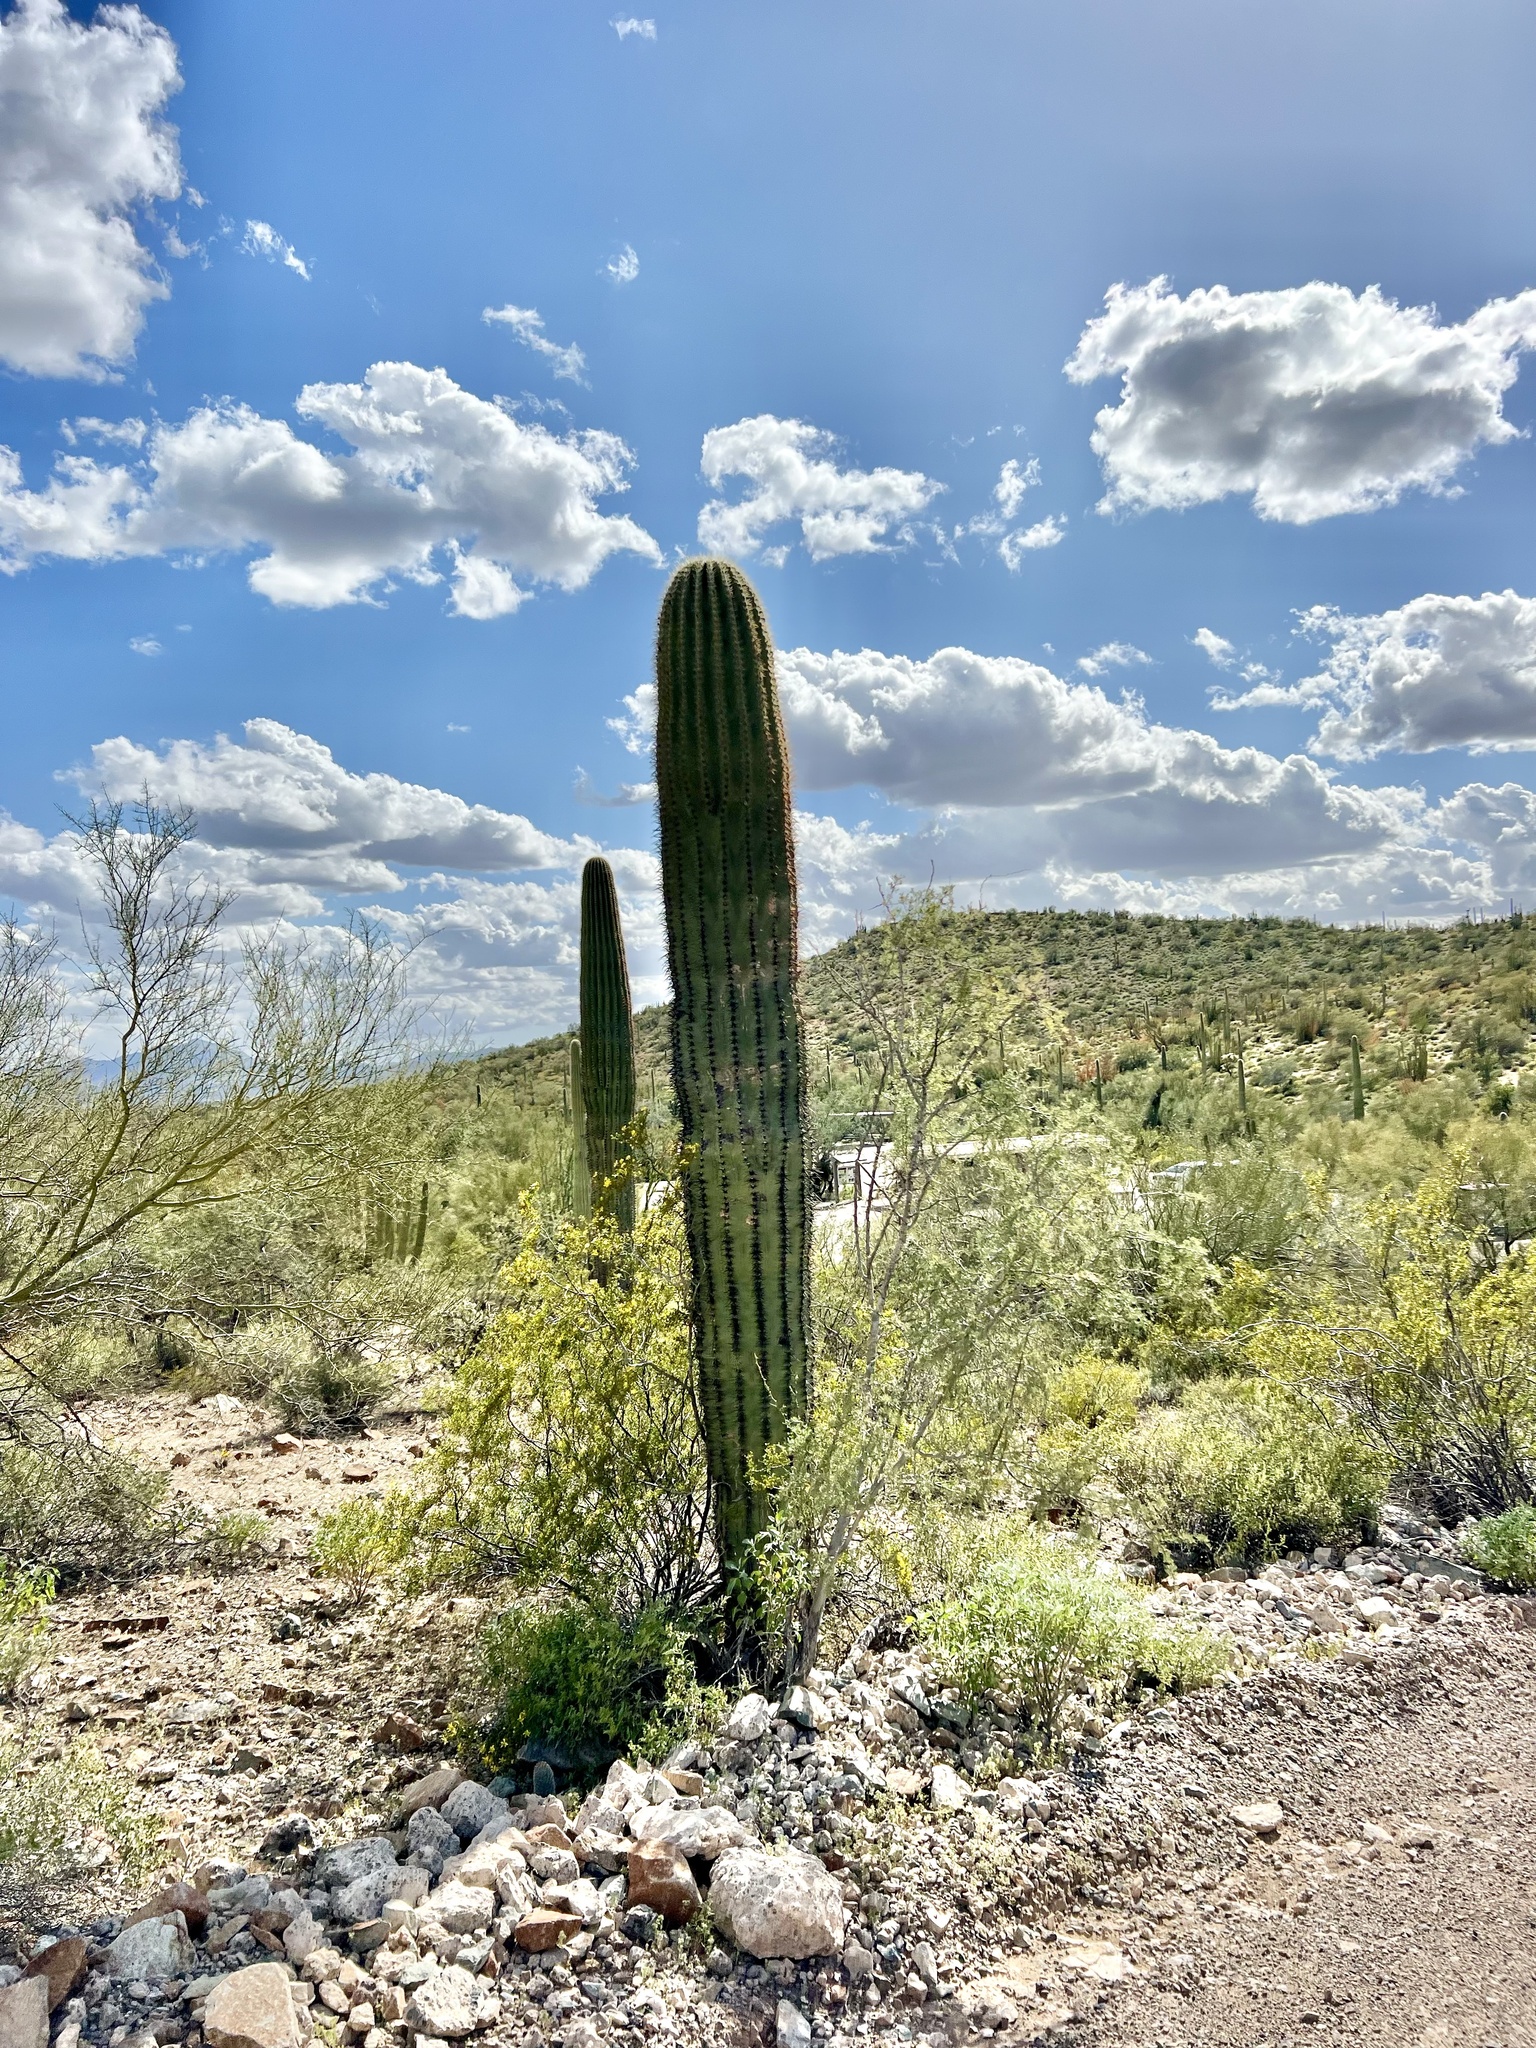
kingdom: Plantae
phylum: Tracheophyta
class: Magnoliopsida
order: Caryophyllales
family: Cactaceae
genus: Carnegiea
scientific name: Carnegiea gigantea
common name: Saguaro
